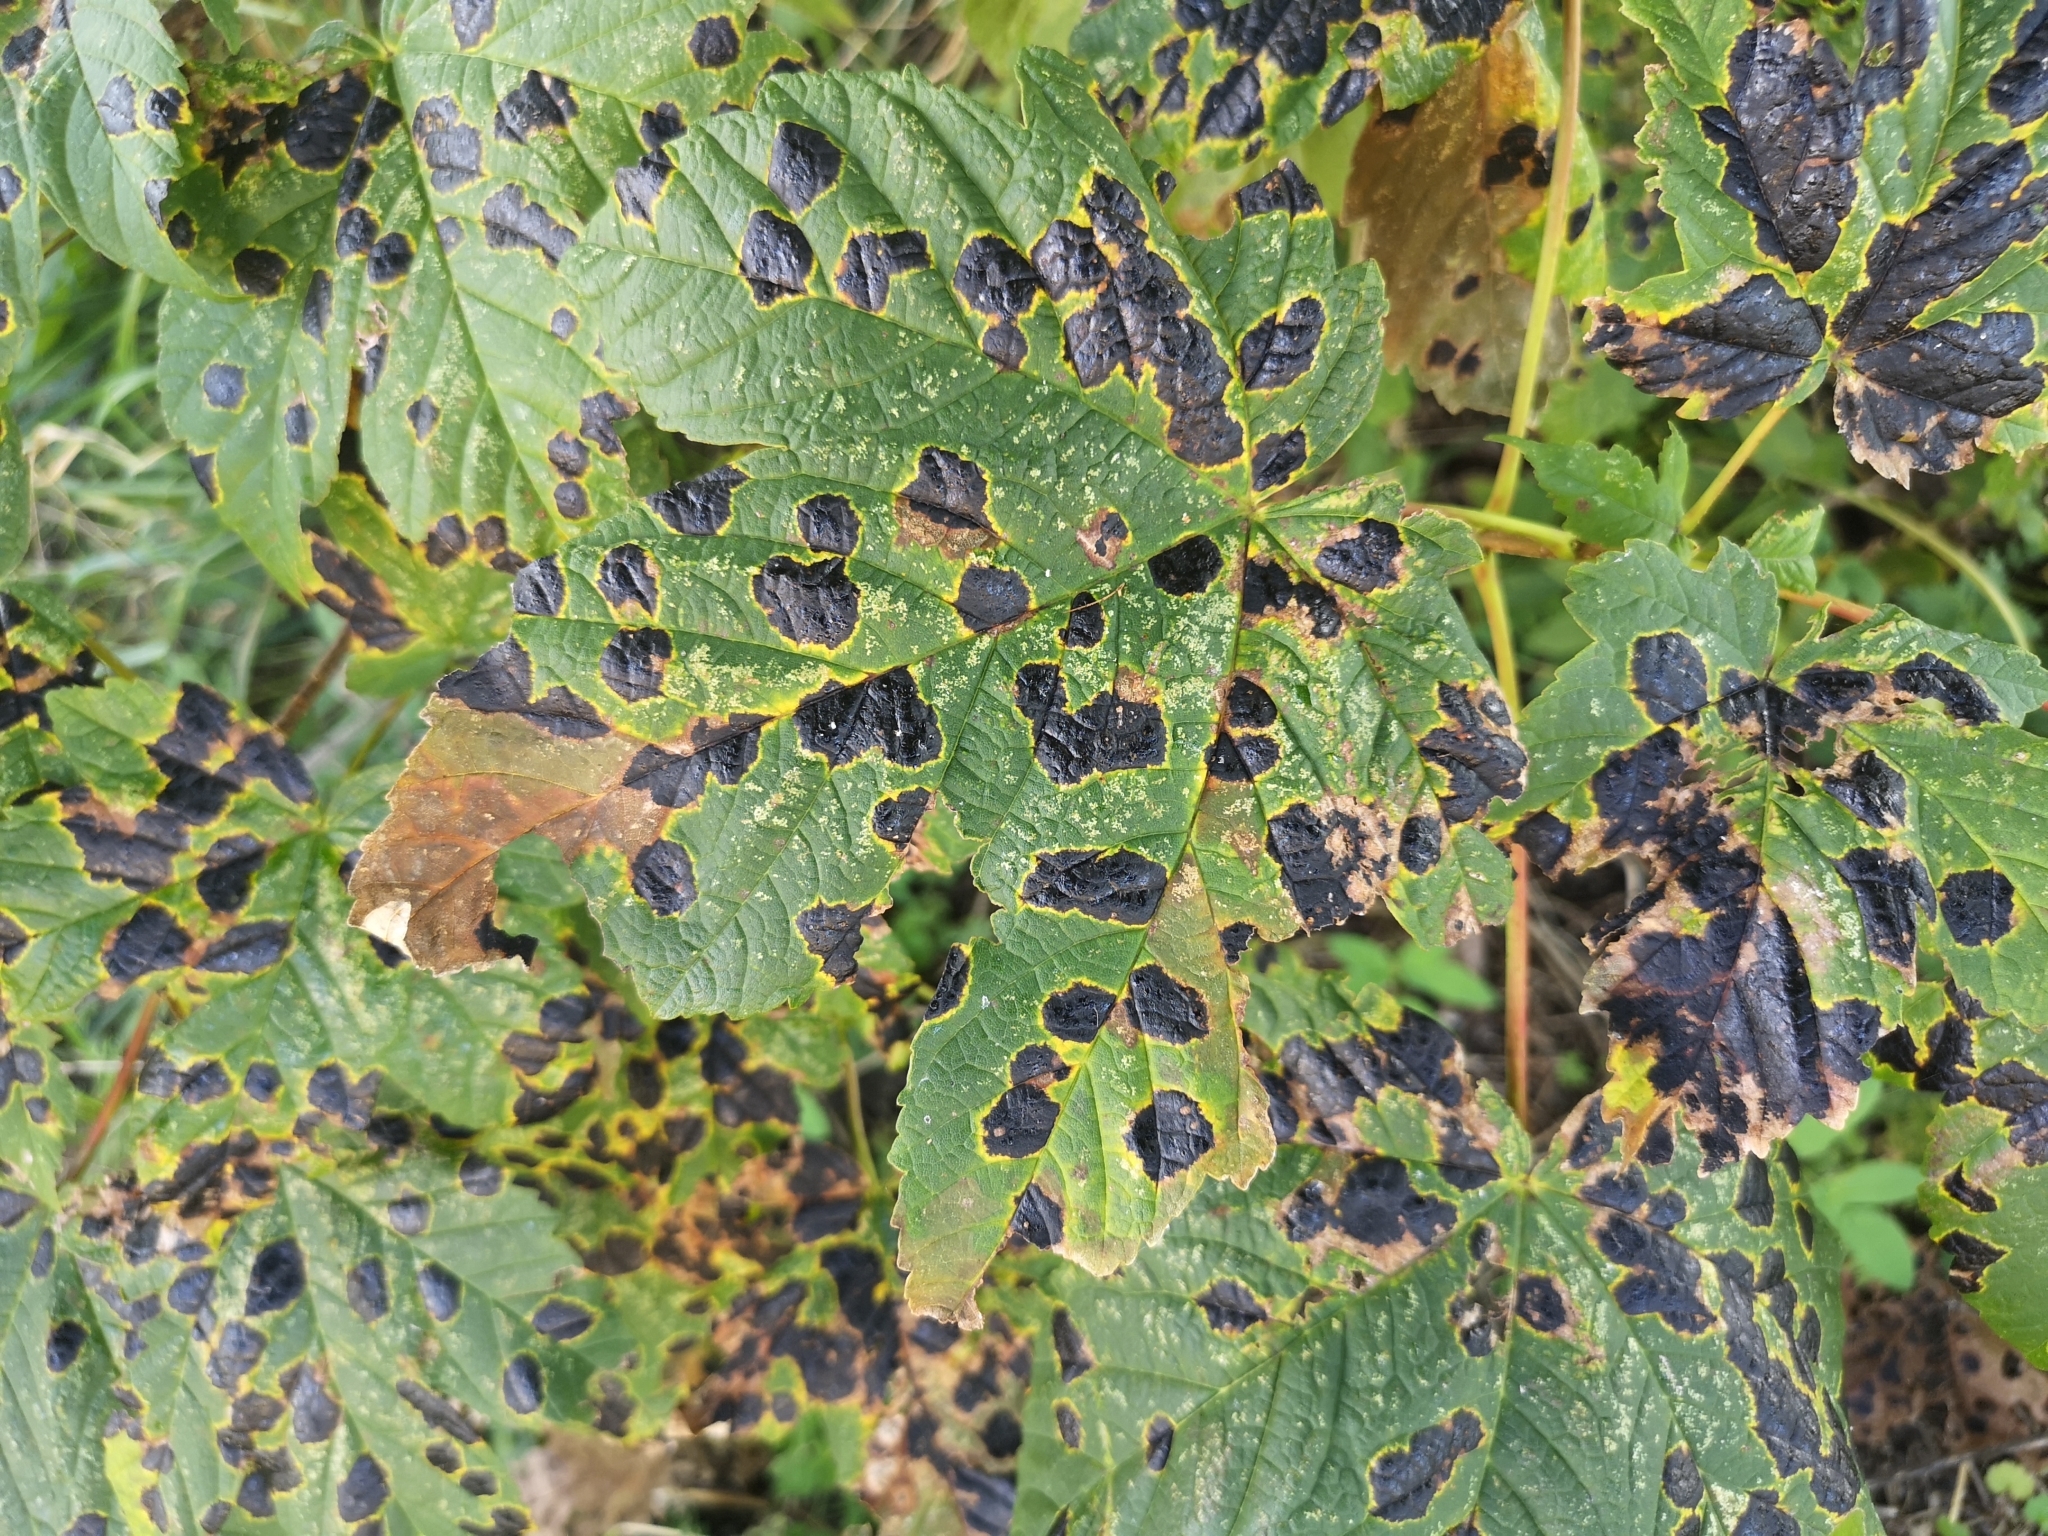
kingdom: Fungi
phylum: Ascomycota
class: Leotiomycetes
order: Rhytismatales
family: Rhytismataceae
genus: Rhytisma
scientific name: Rhytisma acerinum
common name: European tar spot
